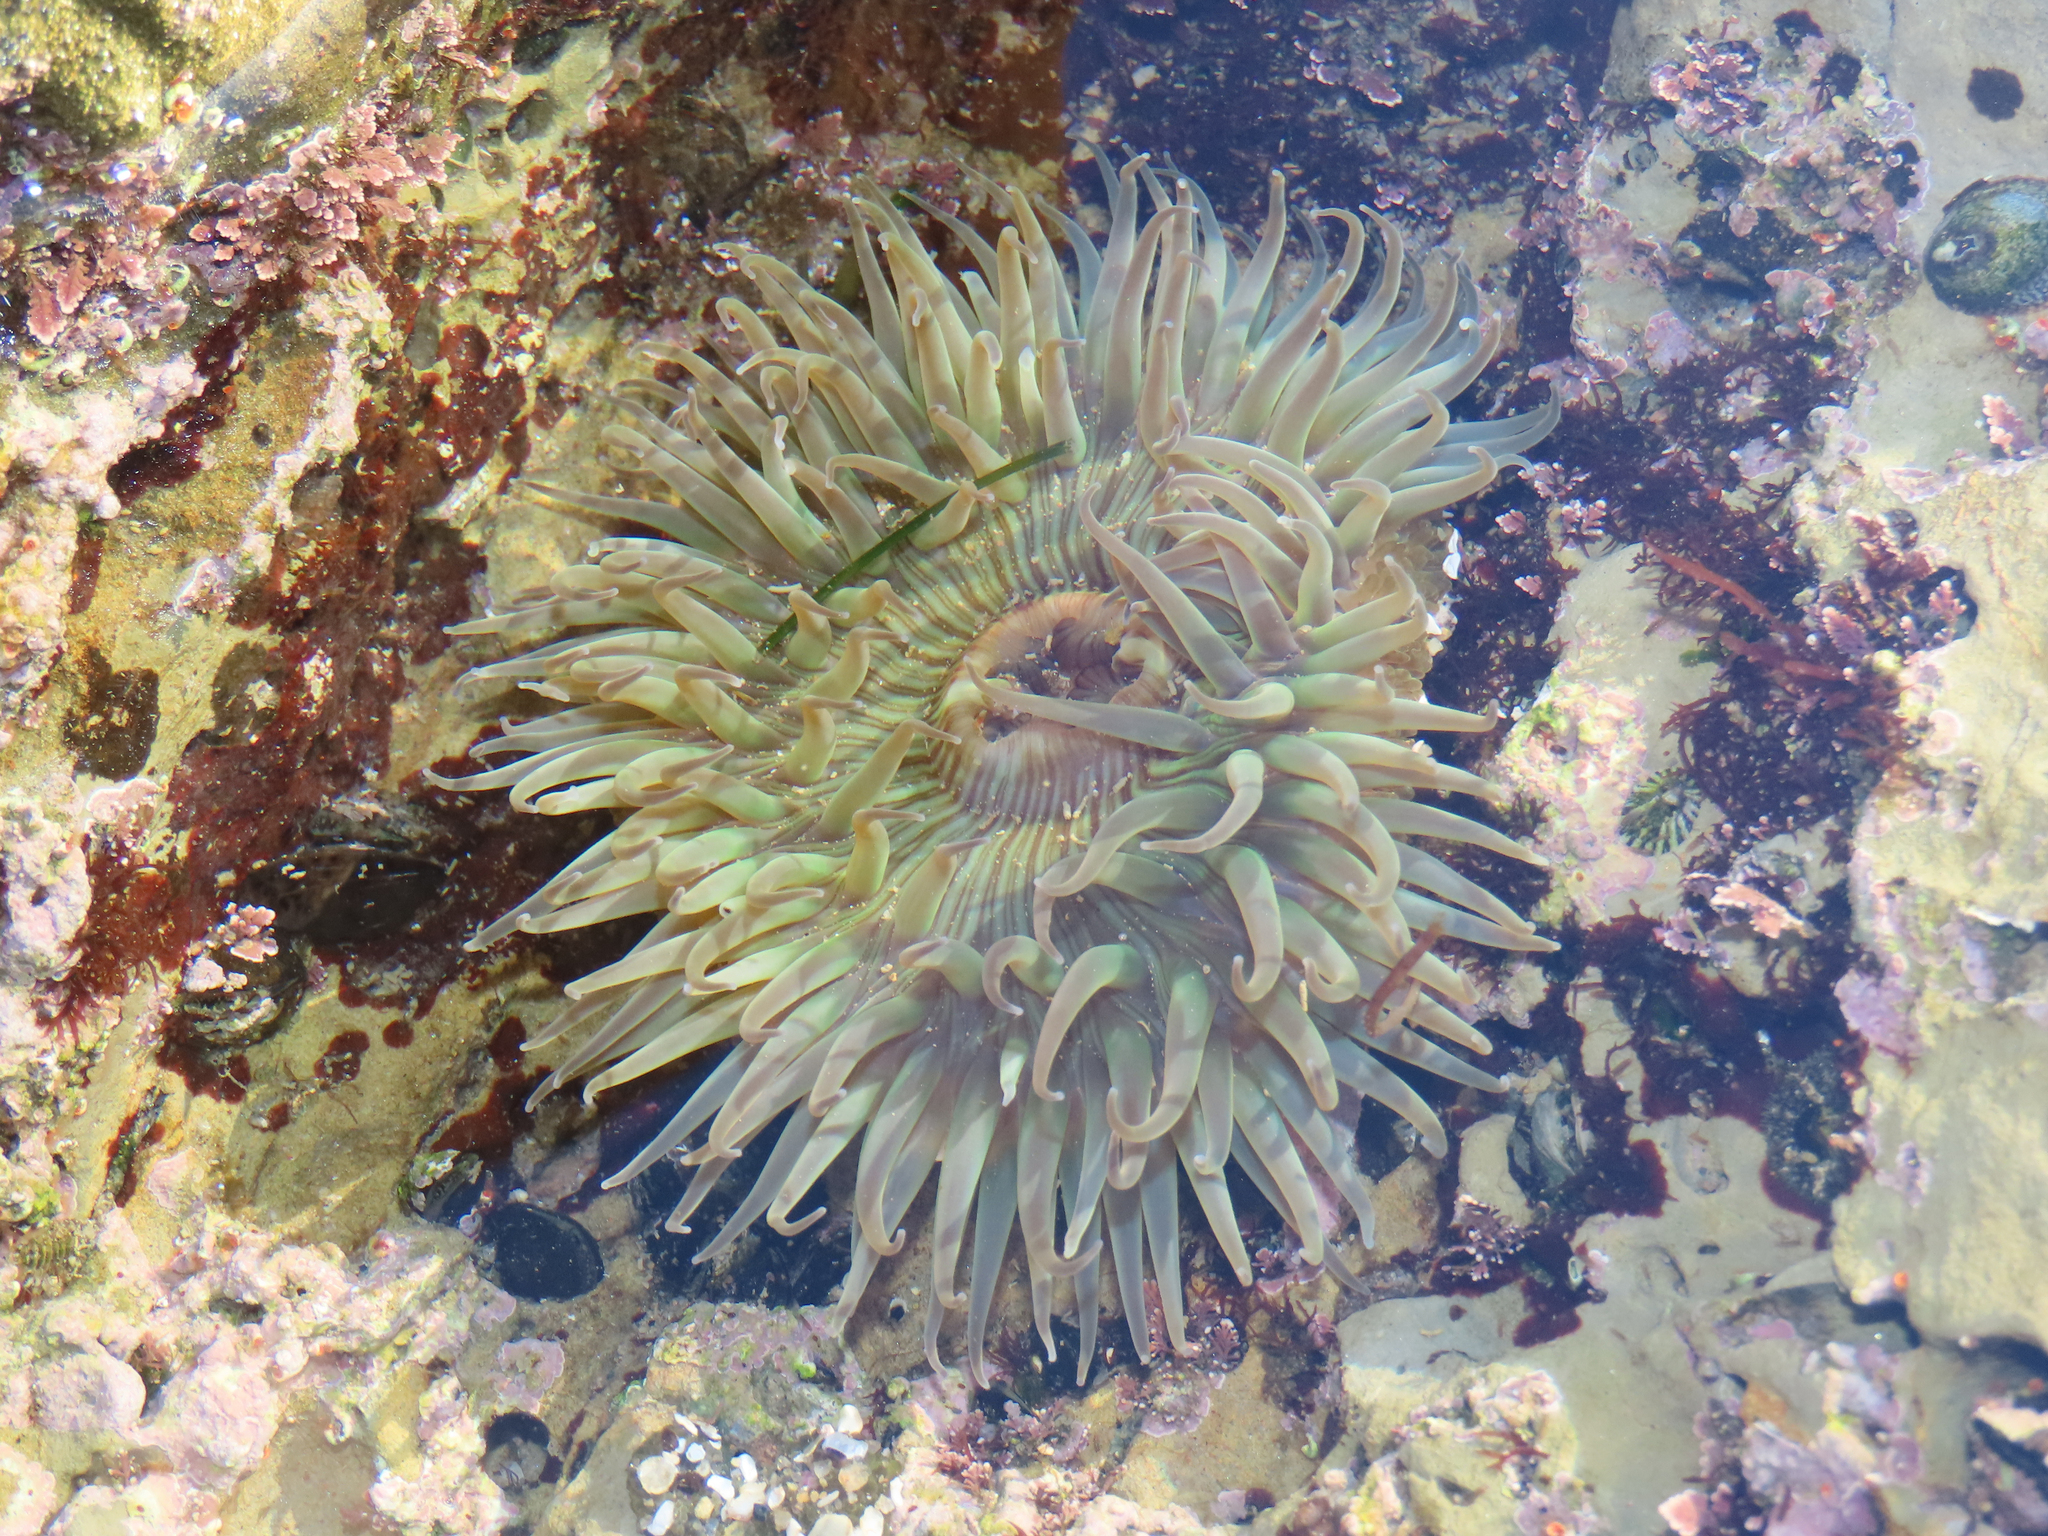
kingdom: Animalia
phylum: Cnidaria
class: Anthozoa
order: Actiniaria
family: Actiniidae
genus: Anthopleura
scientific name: Anthopleura sola
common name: Sun anemone
